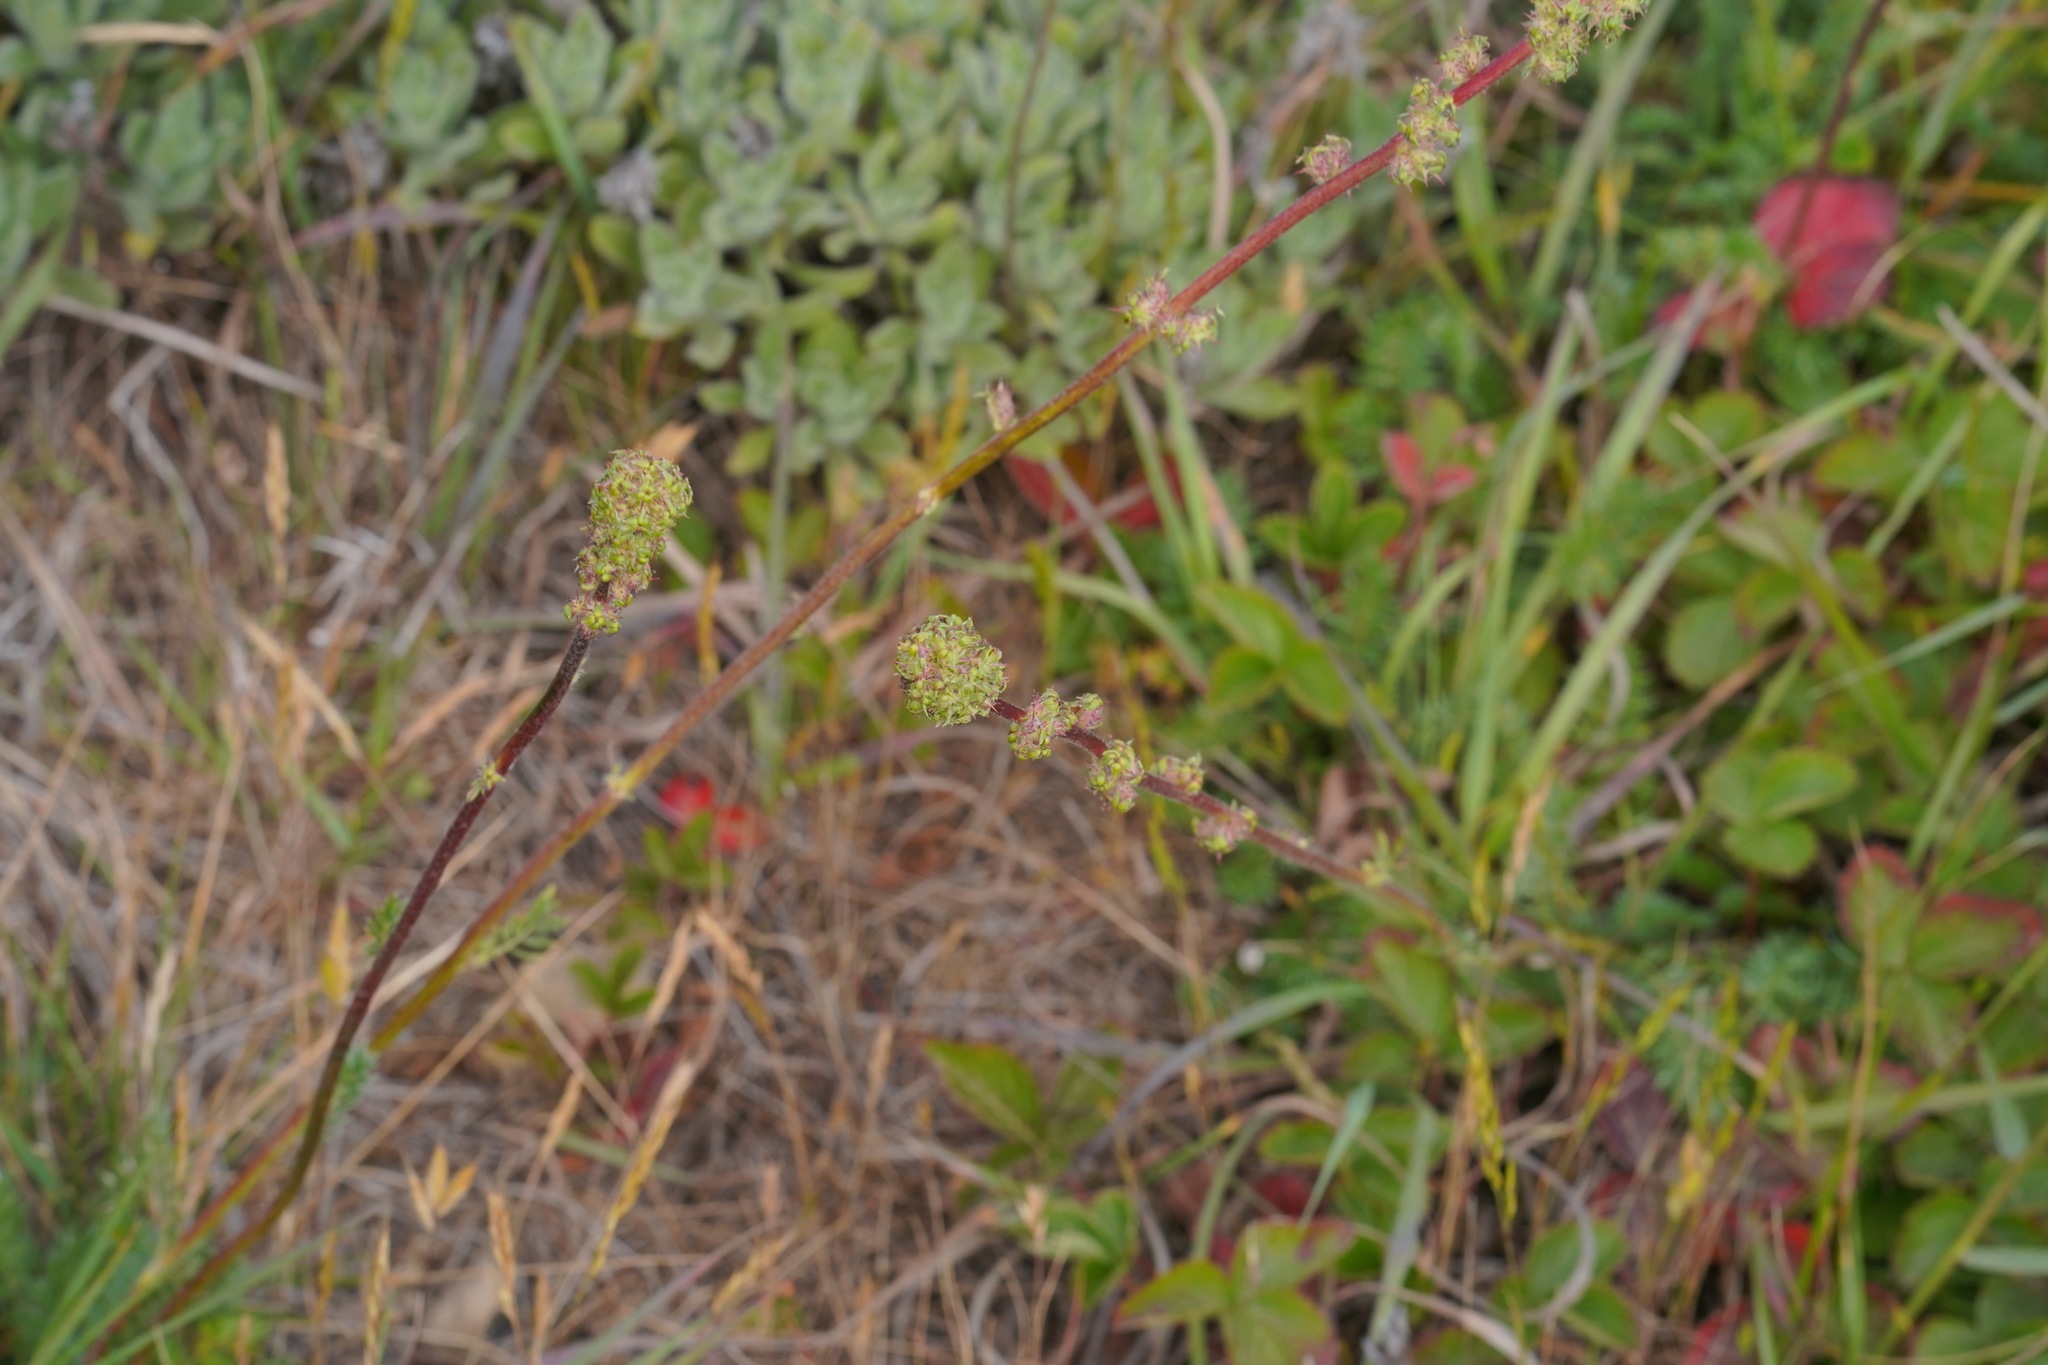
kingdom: Plantae
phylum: Tracheophyta
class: Magnoliopsida
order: Rosales
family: Rosaceae
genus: Acaena
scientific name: Acaena pinnatifida
